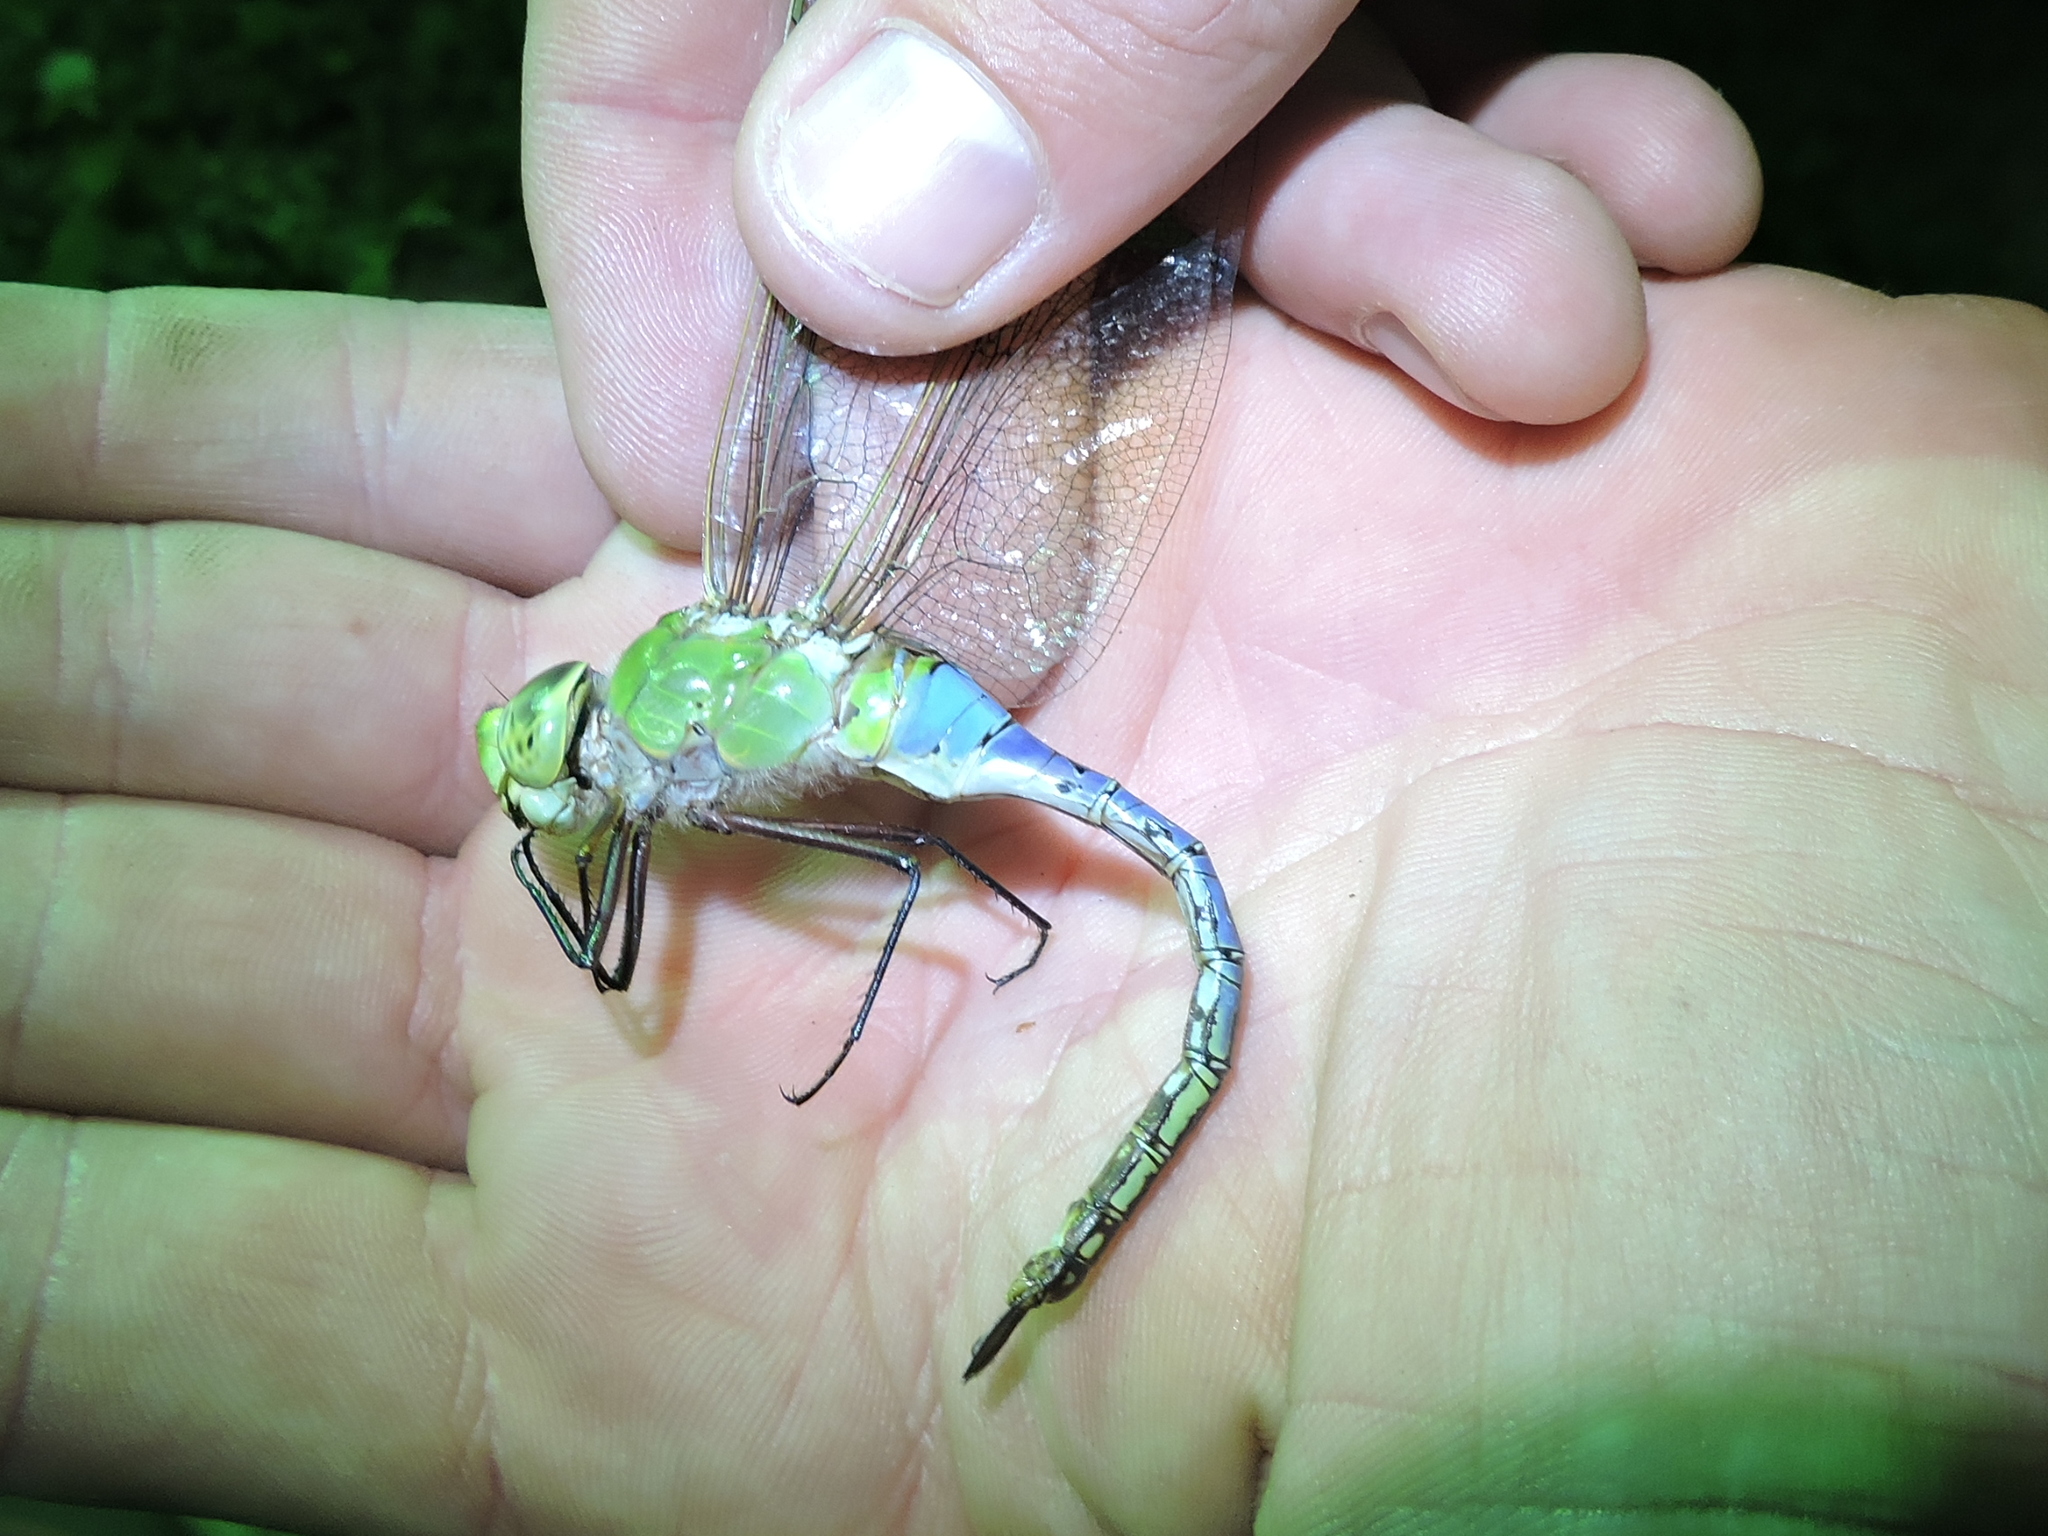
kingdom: Animalia
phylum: Arthropoda
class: Insecta
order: Odonata
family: Aeshnidae
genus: Anax
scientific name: Anax junius
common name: Common green darner
